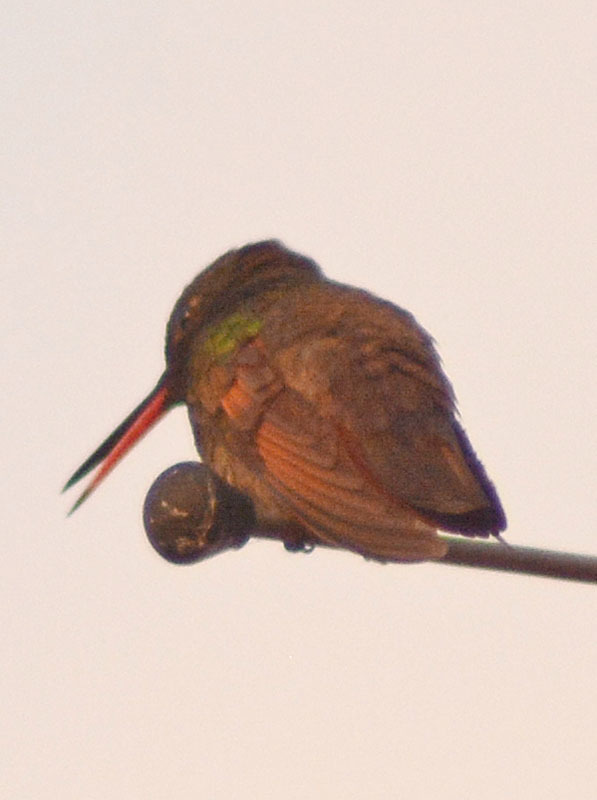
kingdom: Animalia
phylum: Chordata
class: Aves
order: Apodiformes
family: Trochilidae
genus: Saucerottia
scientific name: Saucerottia beryllina
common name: Berylline hummingbird
